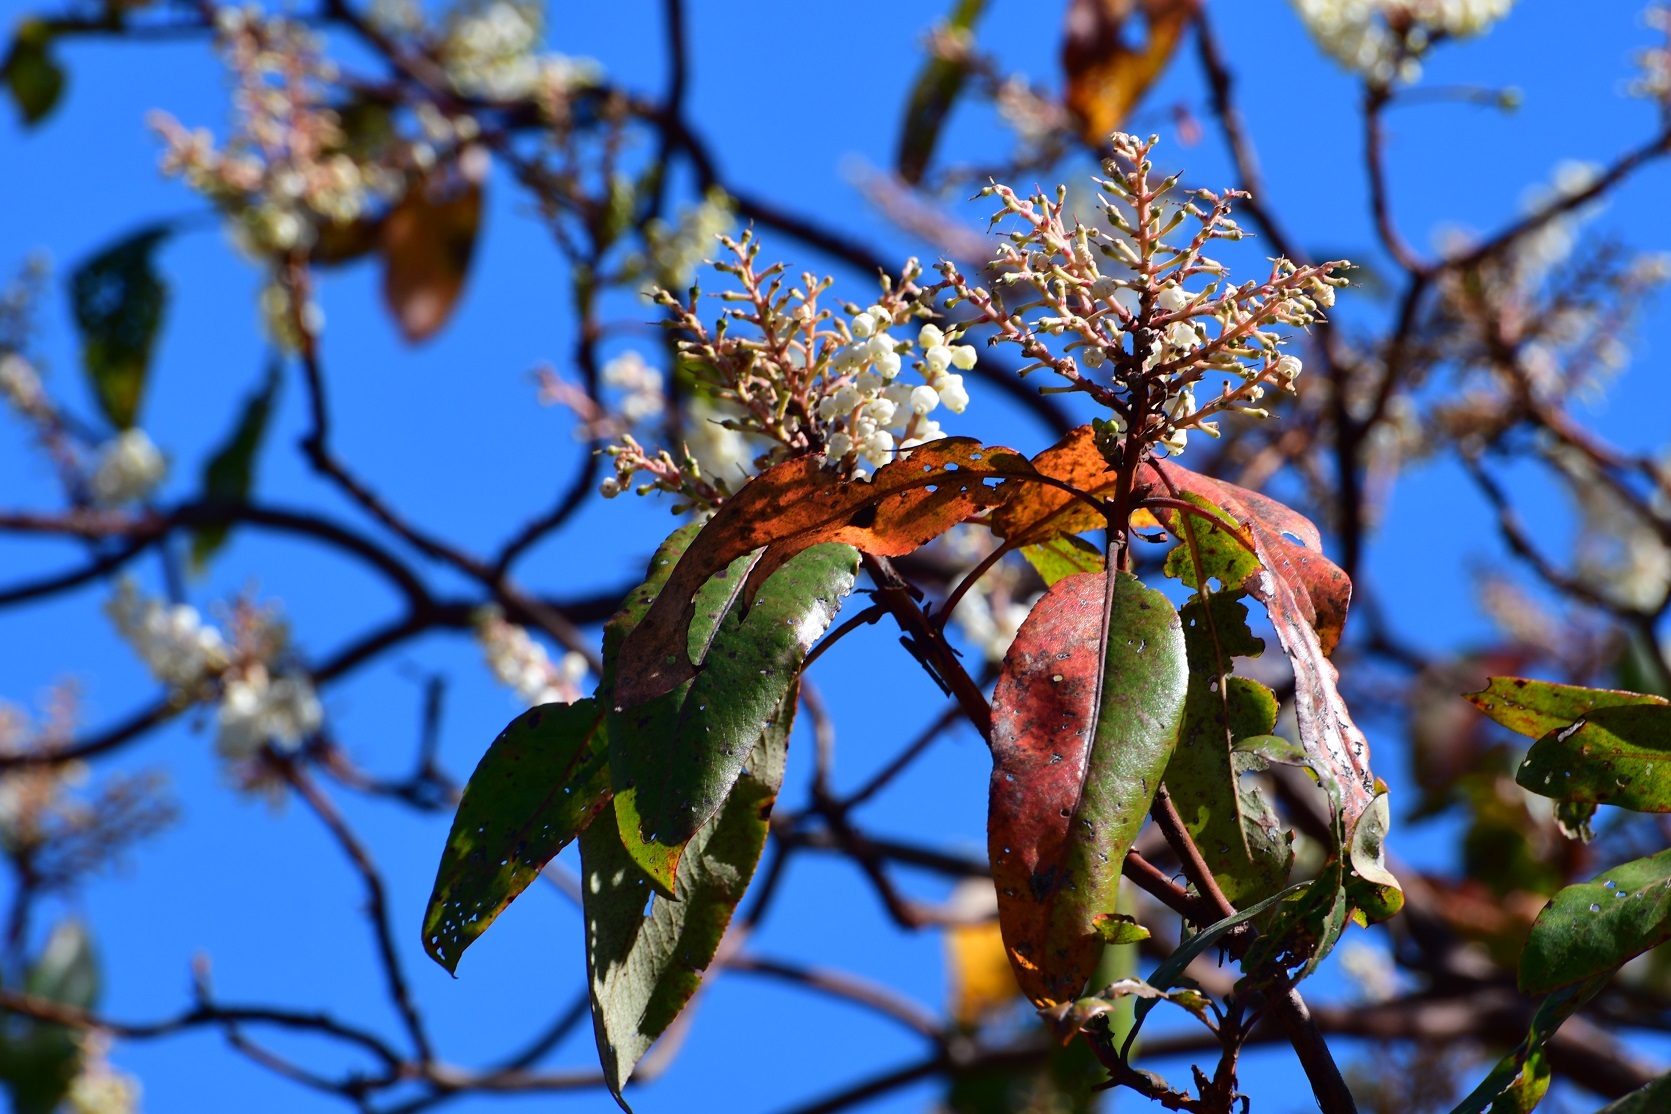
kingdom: Plantae
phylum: Tracheophyta
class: Magnoliopsida
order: Ericales
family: Ericaceae
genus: Arbutus
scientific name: Arbutus xalapensis
